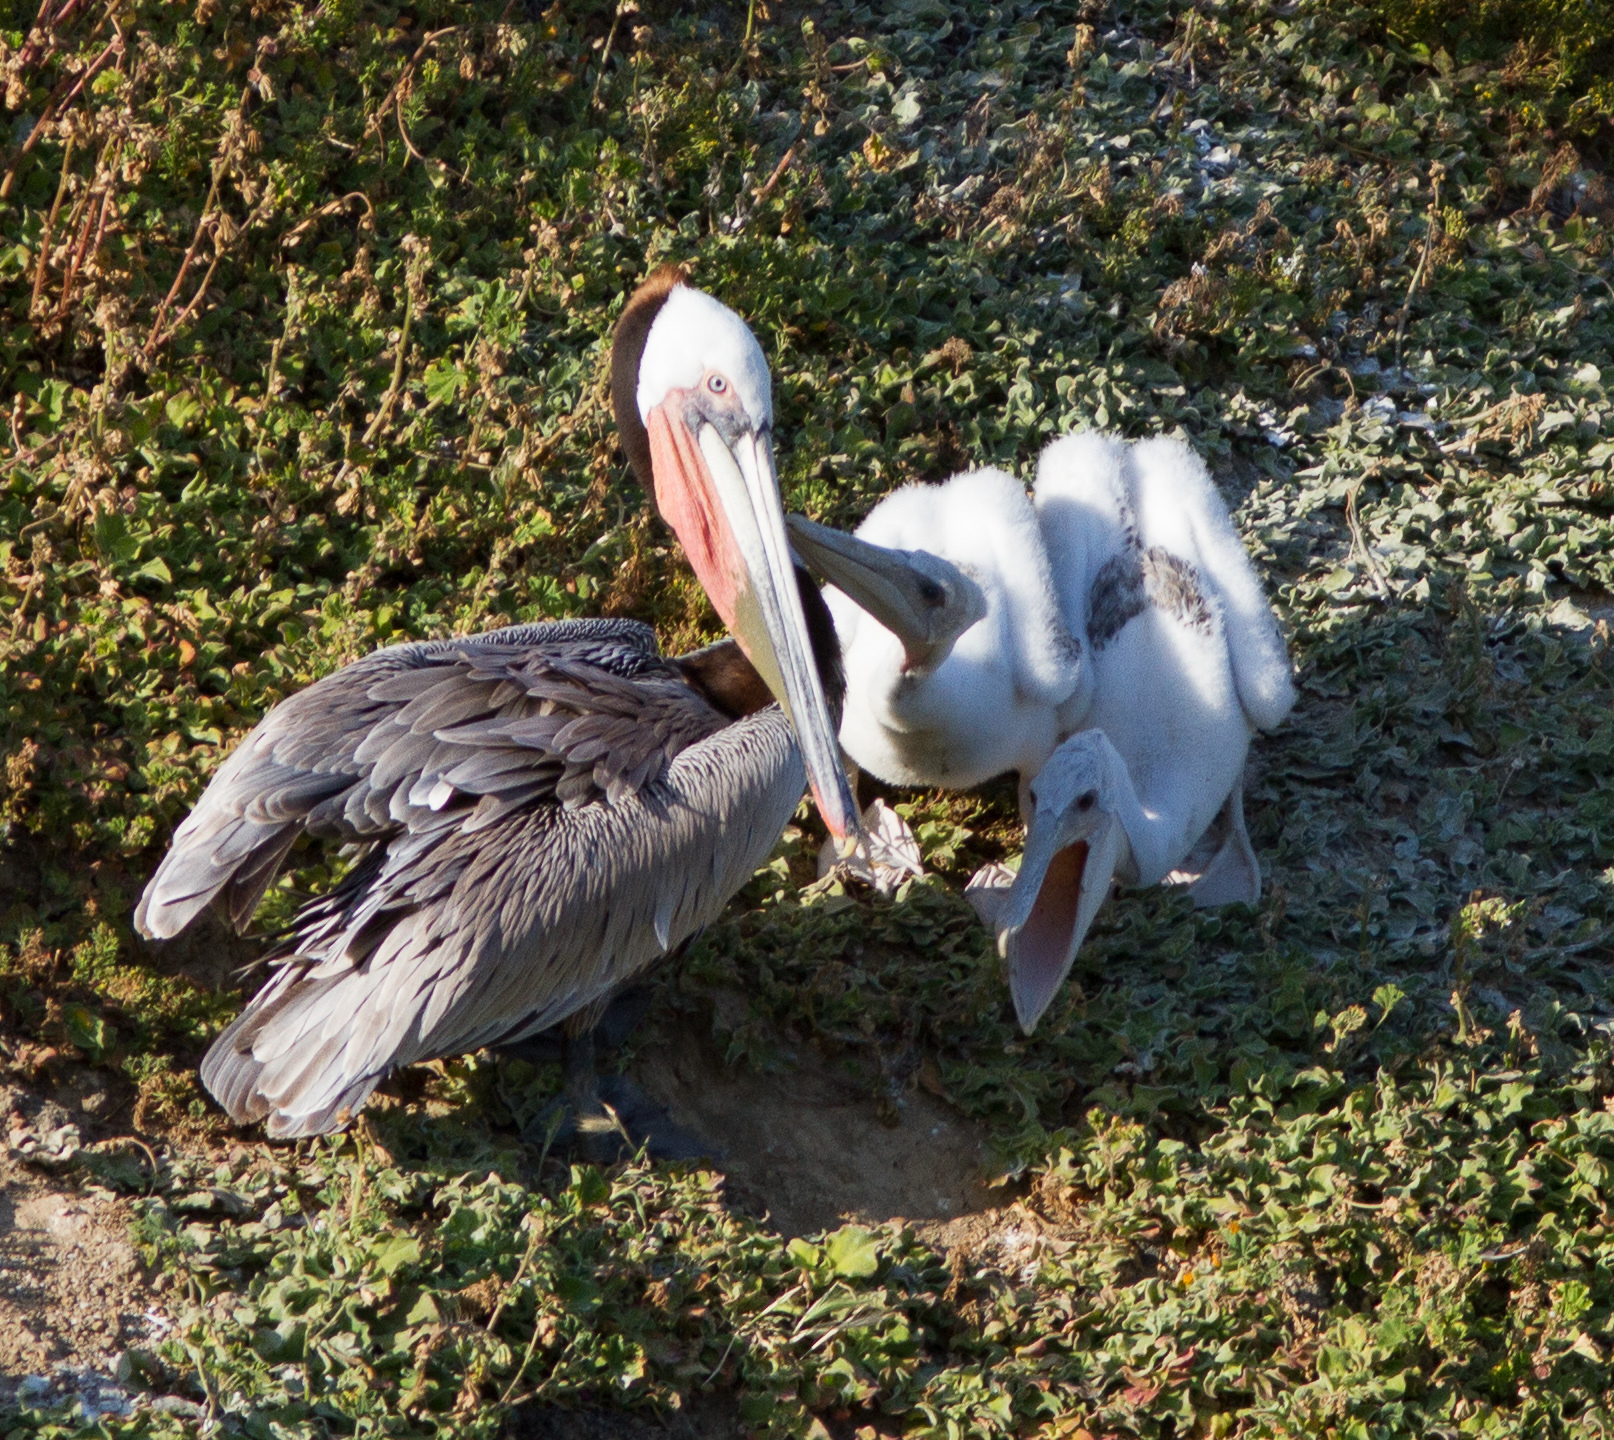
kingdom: Animalia
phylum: Chordata
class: Aves
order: Pelecaniformes
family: Pelecanidae
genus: Pelecanus
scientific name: Pelecanus occidentalis
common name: Brown pelican
